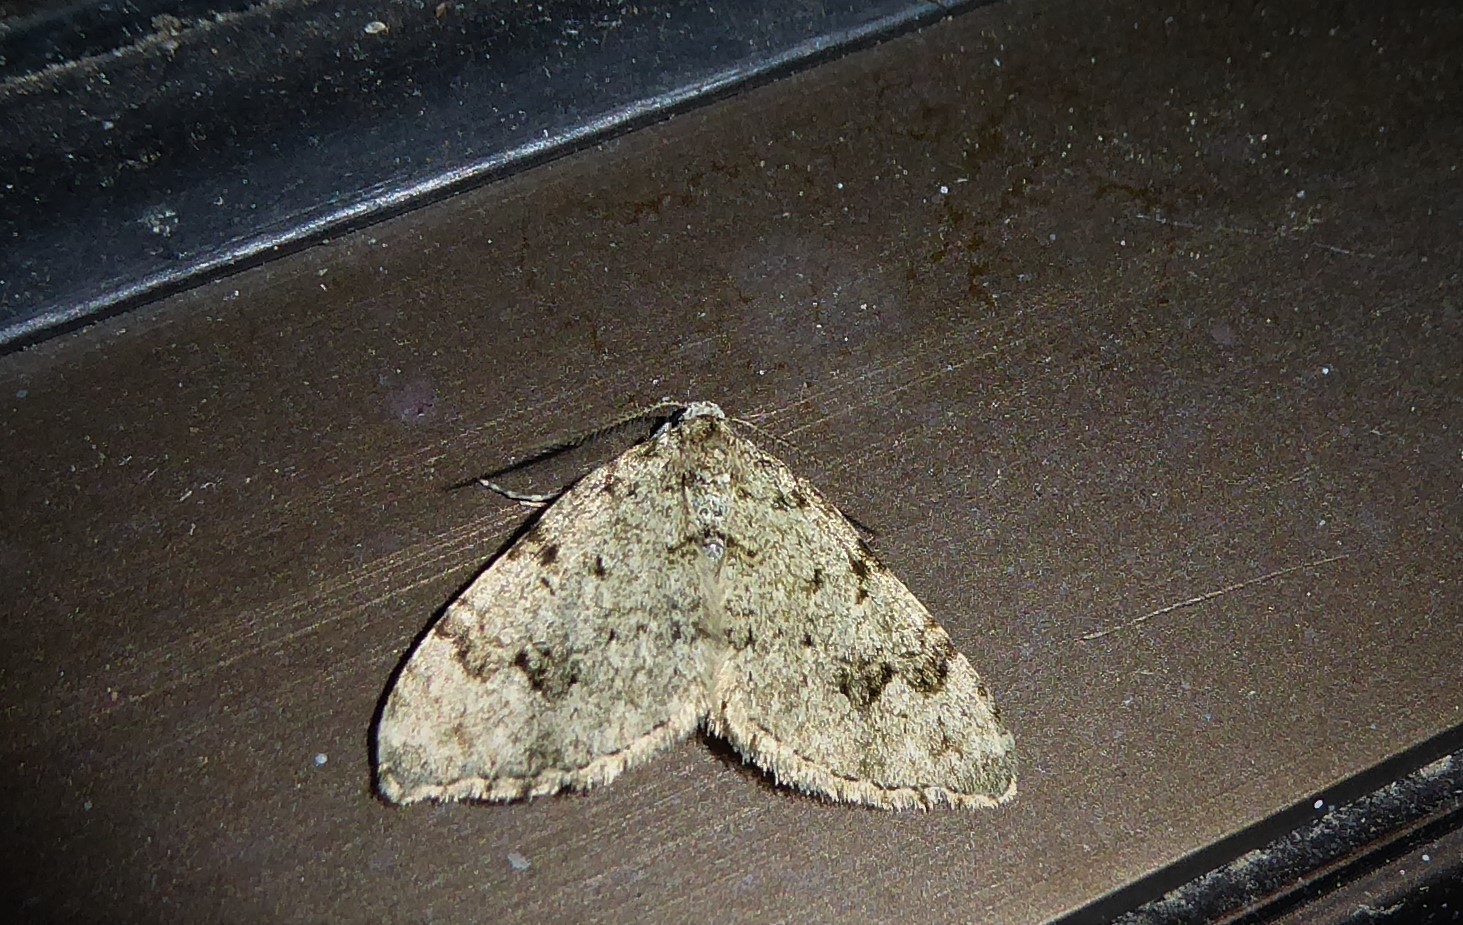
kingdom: Animalia
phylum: Arthropoda
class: Insecta
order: Lepidoptera
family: Geometridae
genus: Helastia
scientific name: Helastia cinerearia
